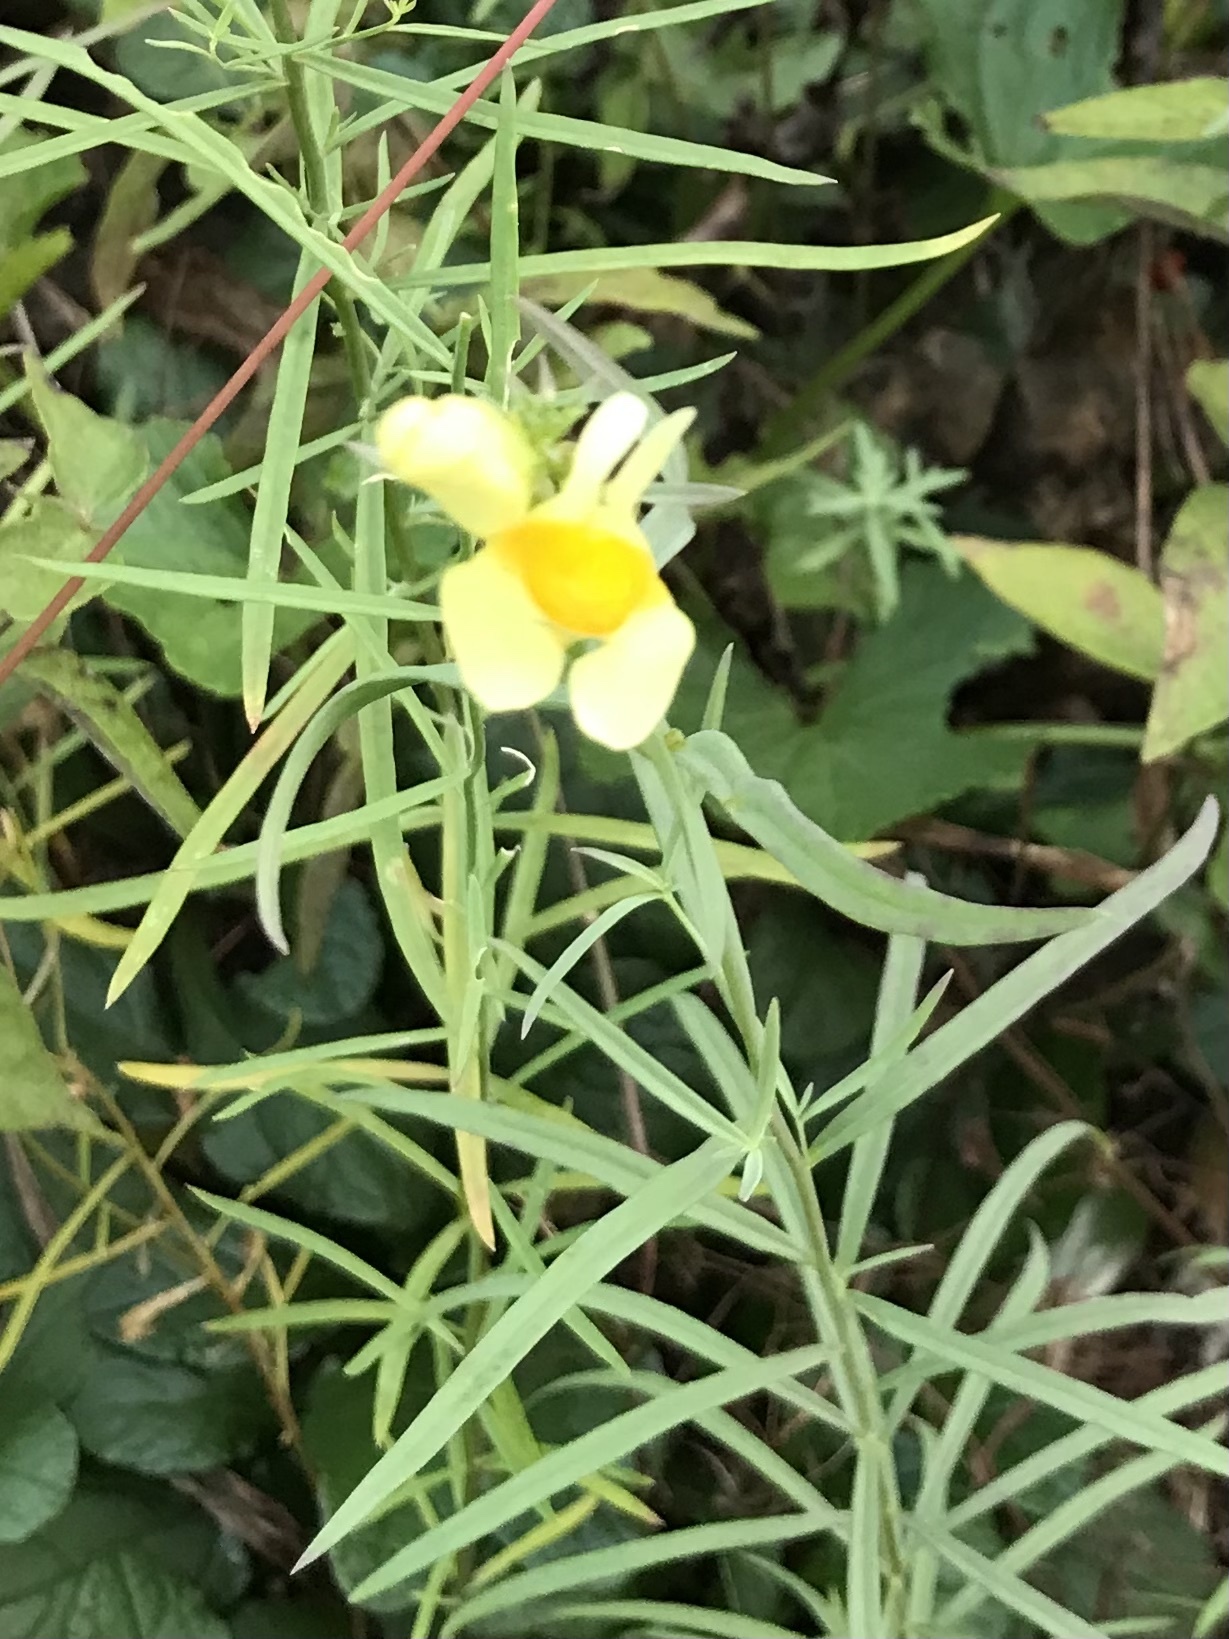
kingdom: Plantae
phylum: Tracheophyta
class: Magnoliopsida
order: Lamiales
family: Plantaginaceae
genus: Linaria
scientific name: Linaria vulgaris
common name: Butter and eggs
